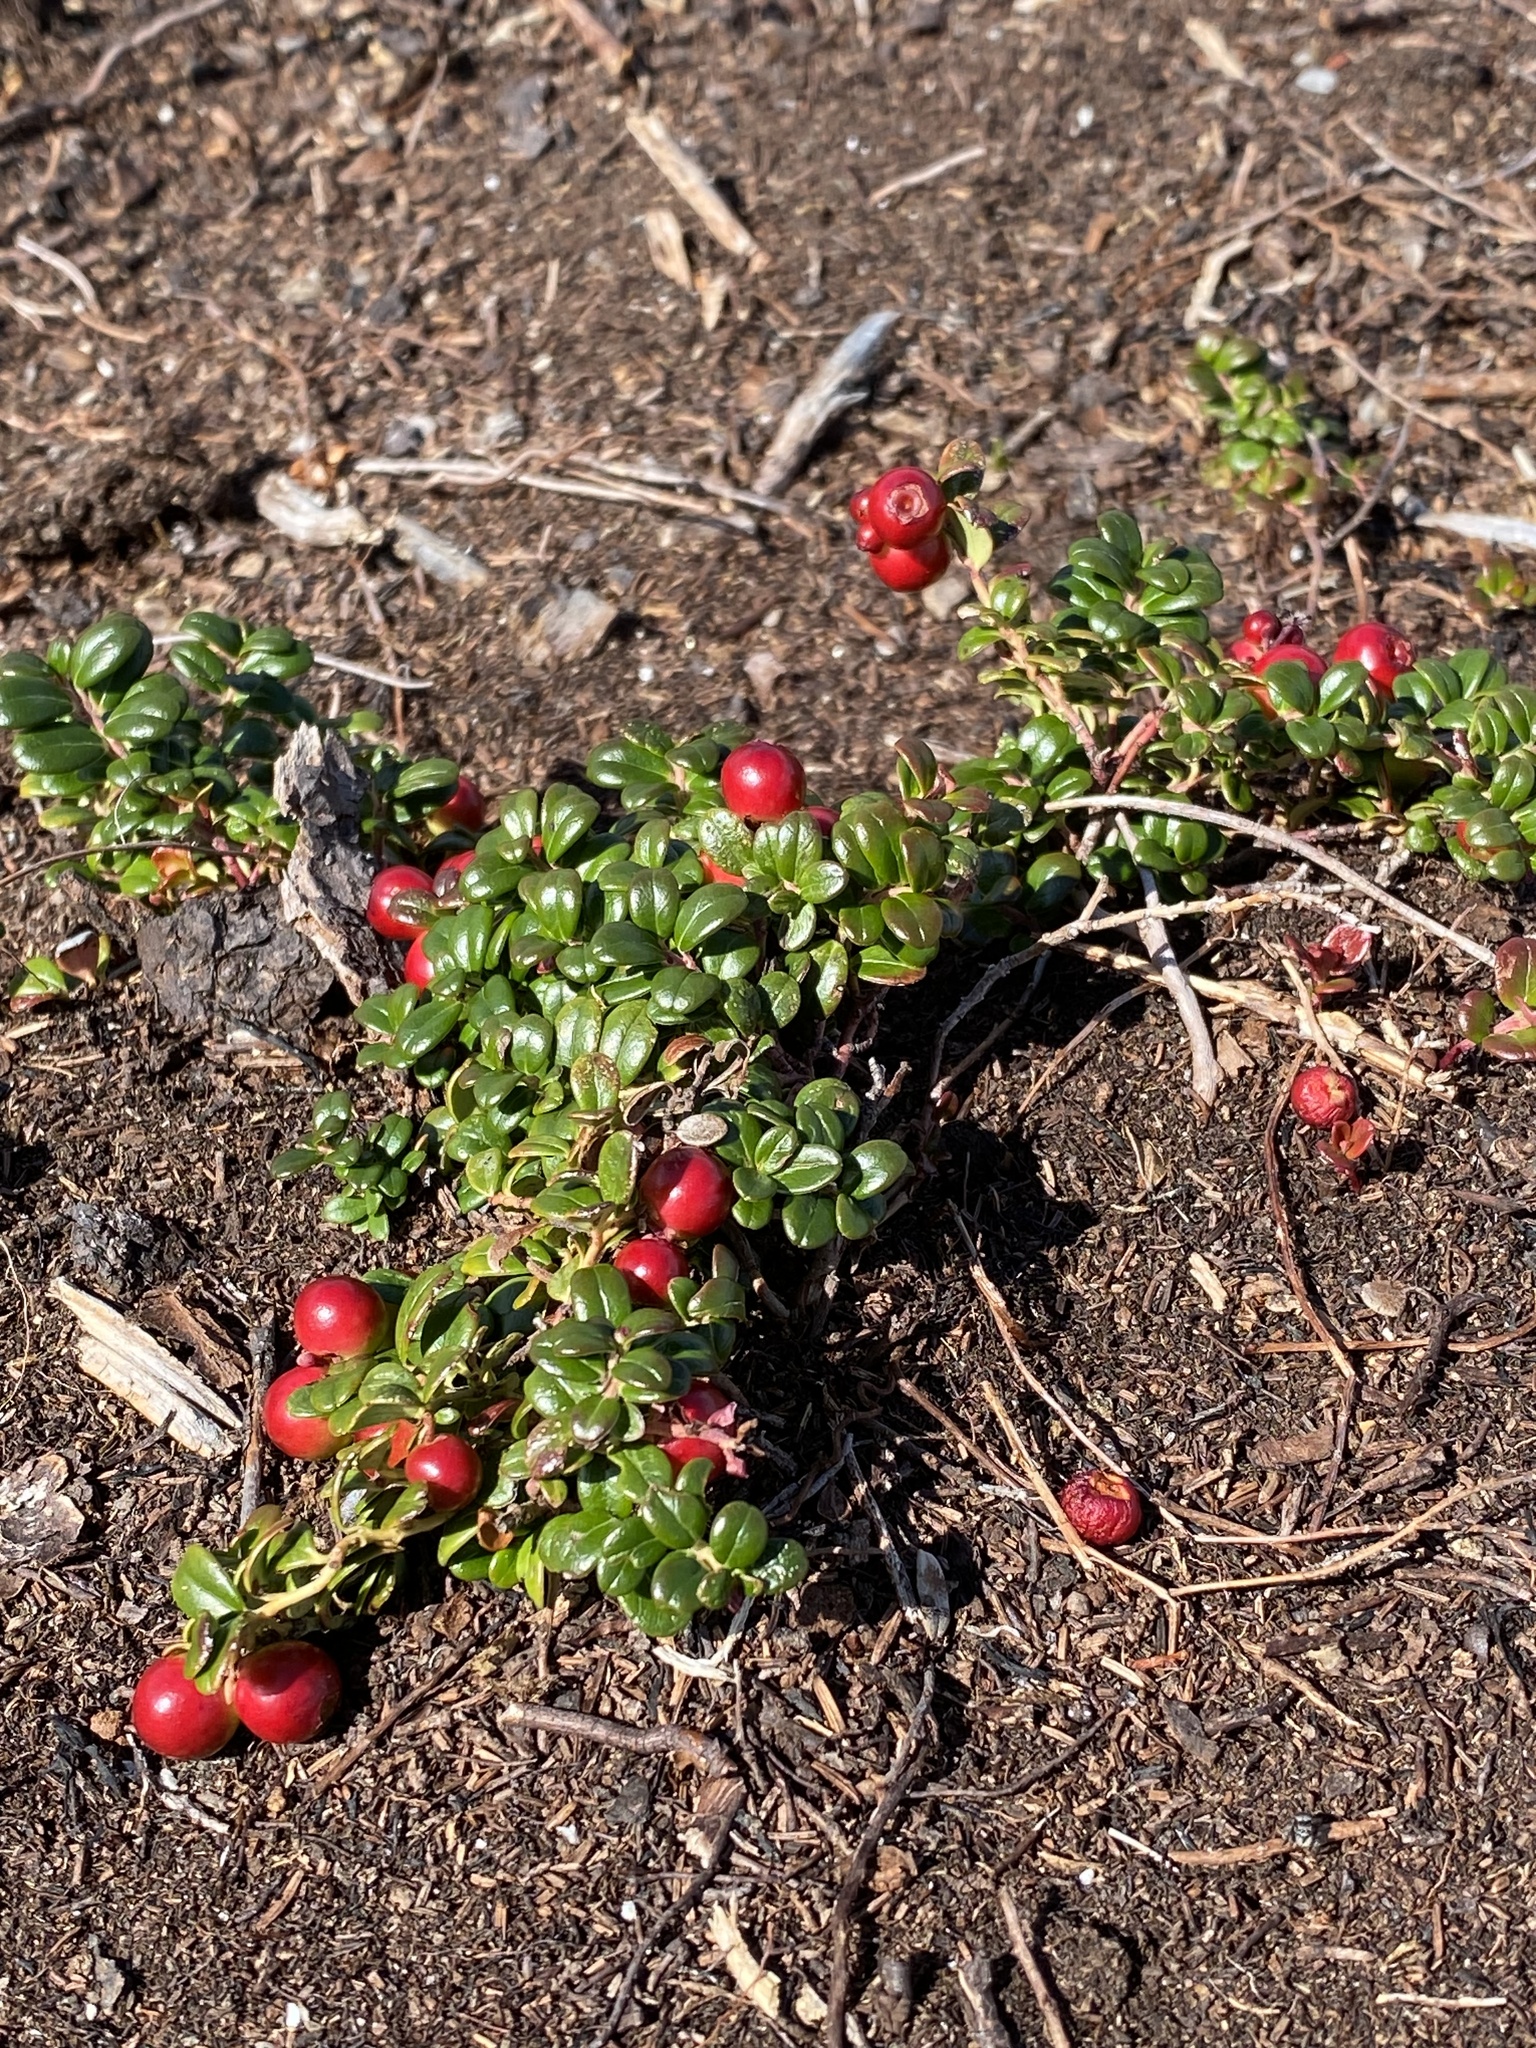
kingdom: Plantae
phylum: Tracheophyta
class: Magnoliopsida
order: Ericales
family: Ericaceae
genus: Vaccinium
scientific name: Vaccinium vitis-idaea
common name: Cowberry
